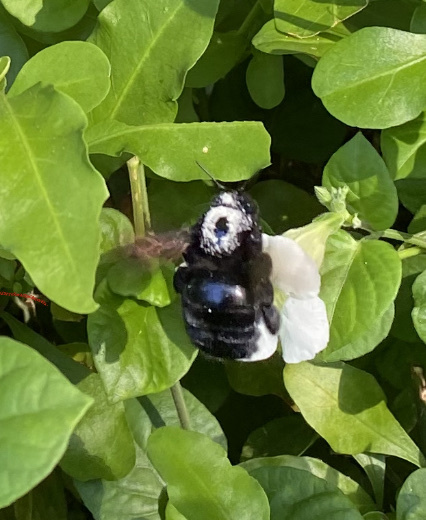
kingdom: Animalia
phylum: Arthropoda
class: Insecta
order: Hymenoptera
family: Apidae
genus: Xylocopa
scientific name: Xylocopa sonorina
